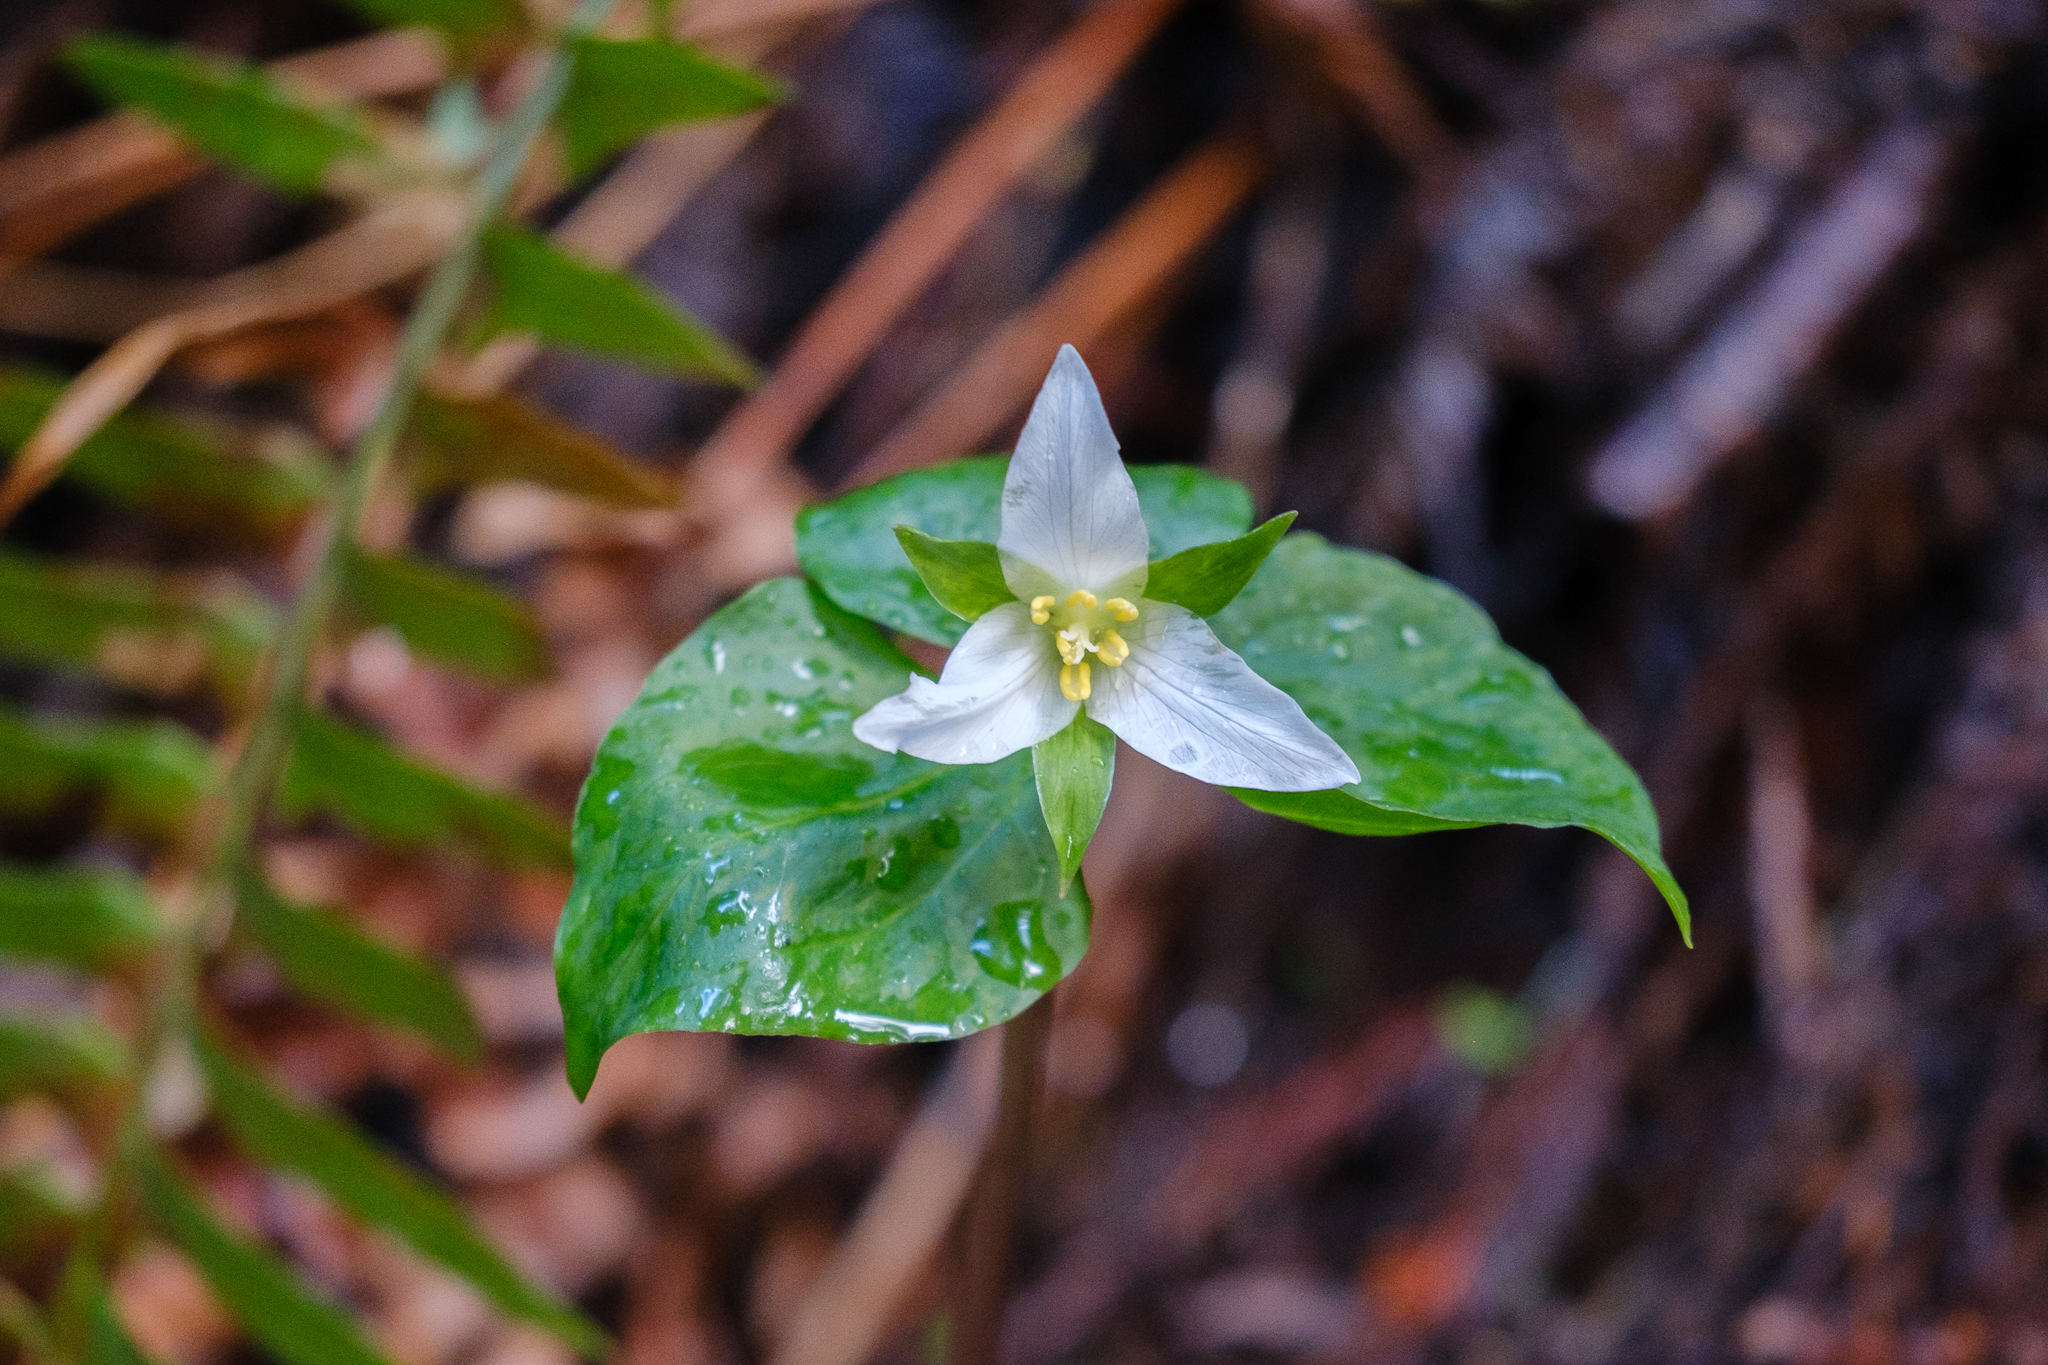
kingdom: Plantae
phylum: Tracheophyta
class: Liliopsida
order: Liliales
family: Melanthiaceae
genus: Trillium
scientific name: Trillium ovatum
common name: Pacific trillium
